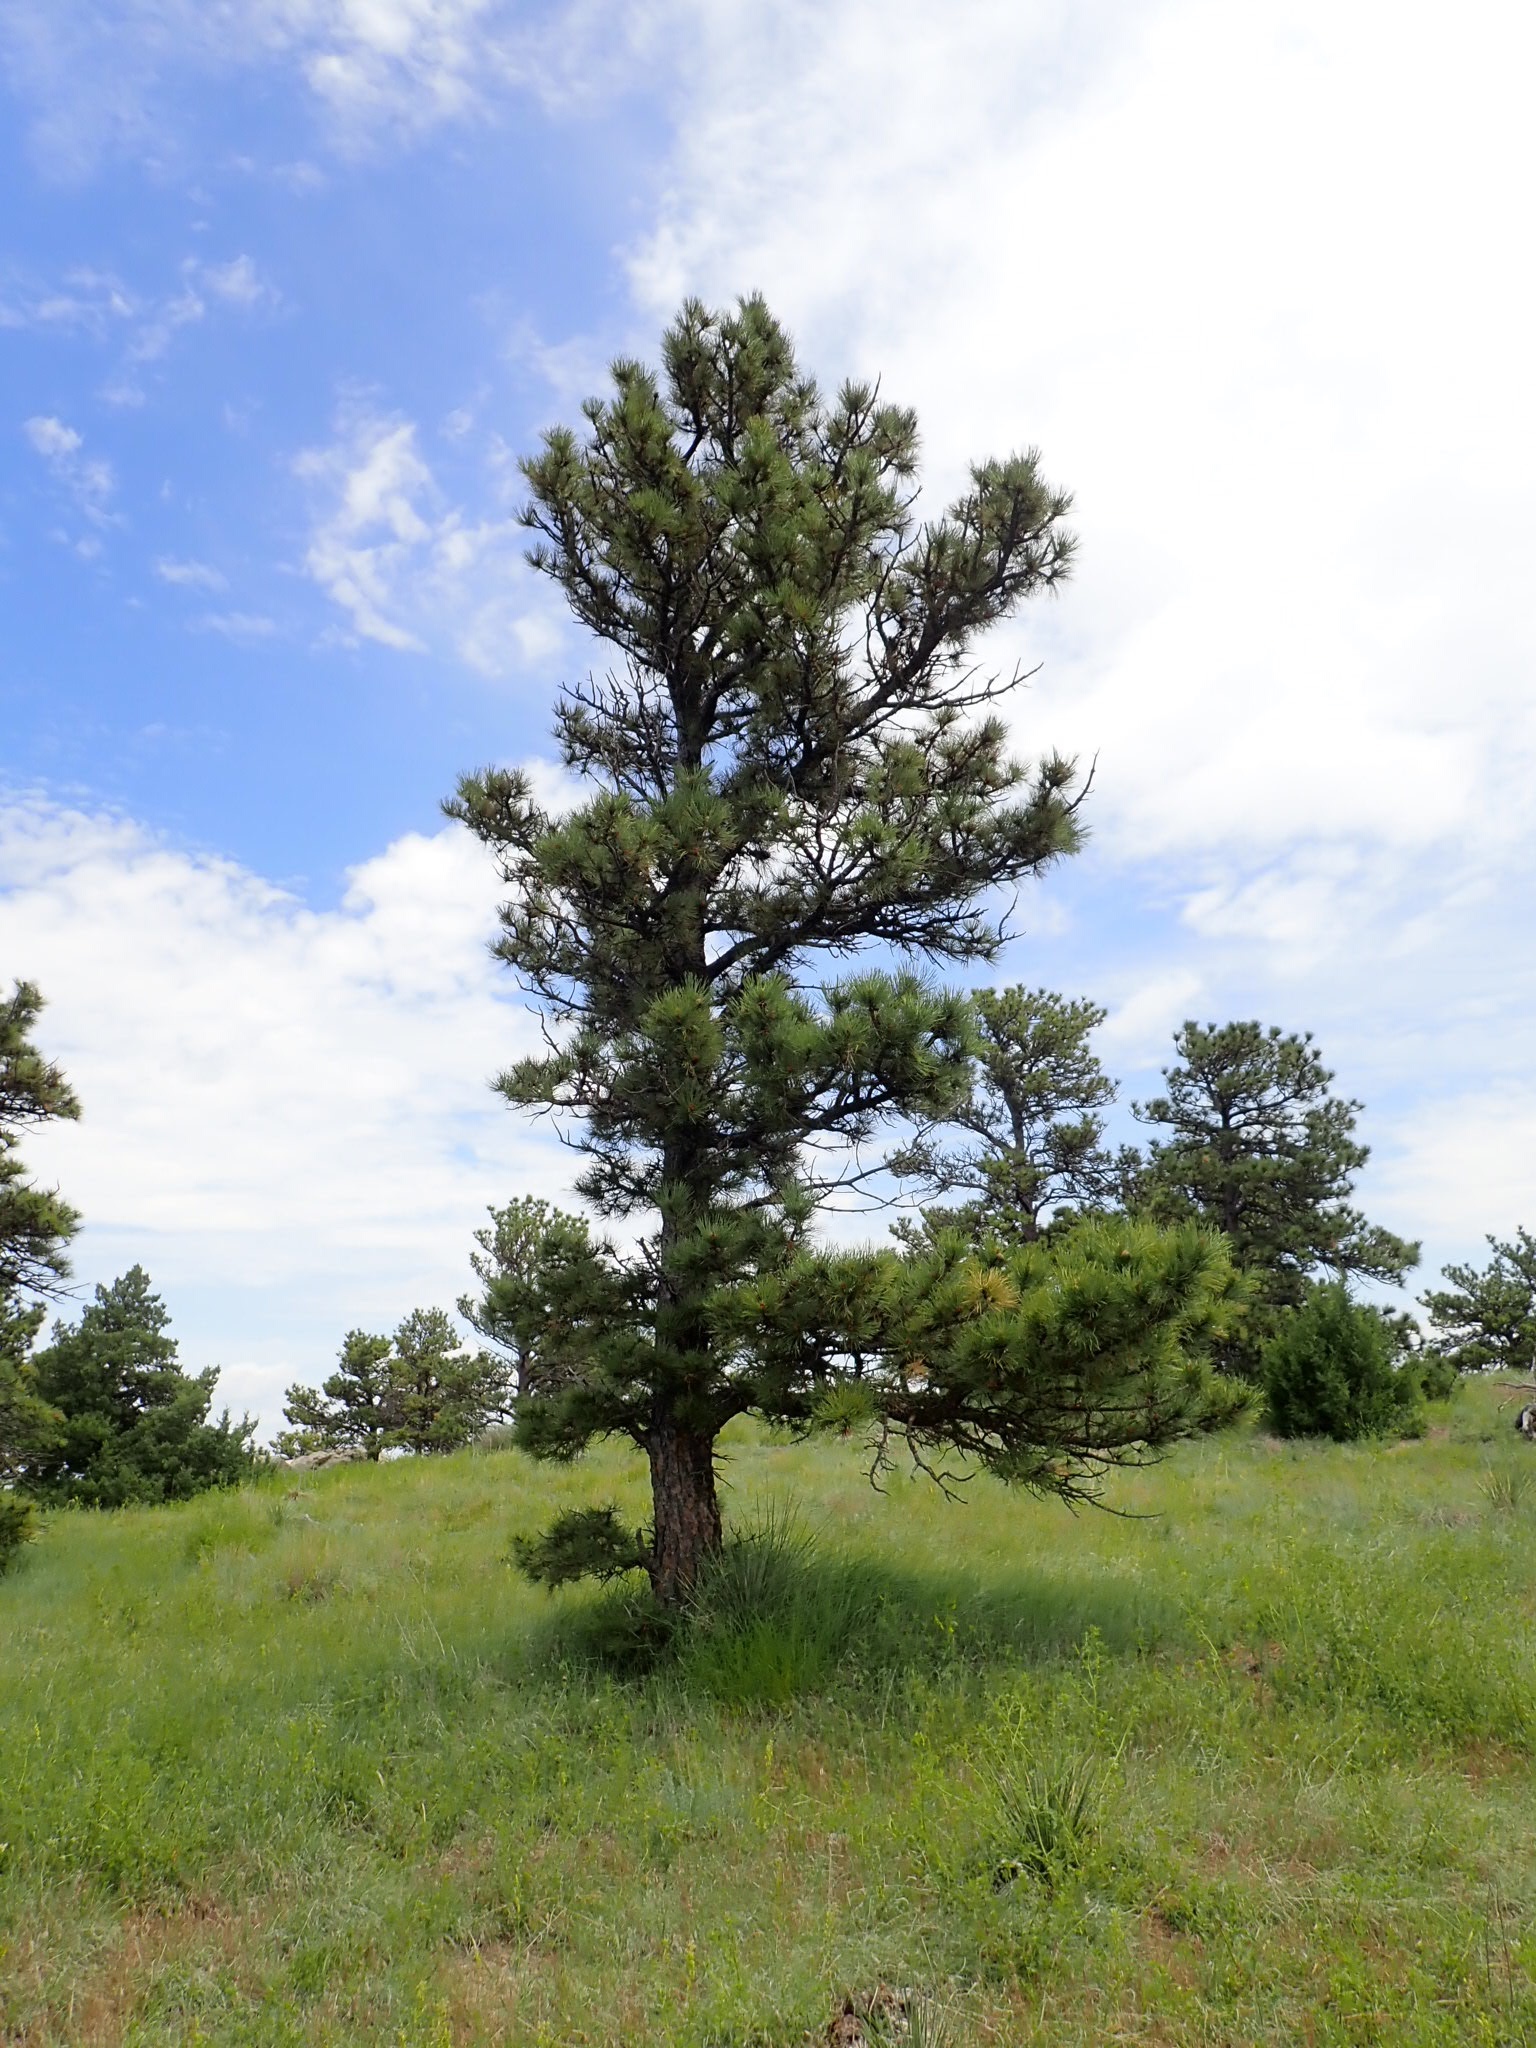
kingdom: Plantae
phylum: Tracheophyta
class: Pinopsida
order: Pinales
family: Pinaceae
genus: Pinus
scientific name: Pinus ponderosa
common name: Western yellow-pine
